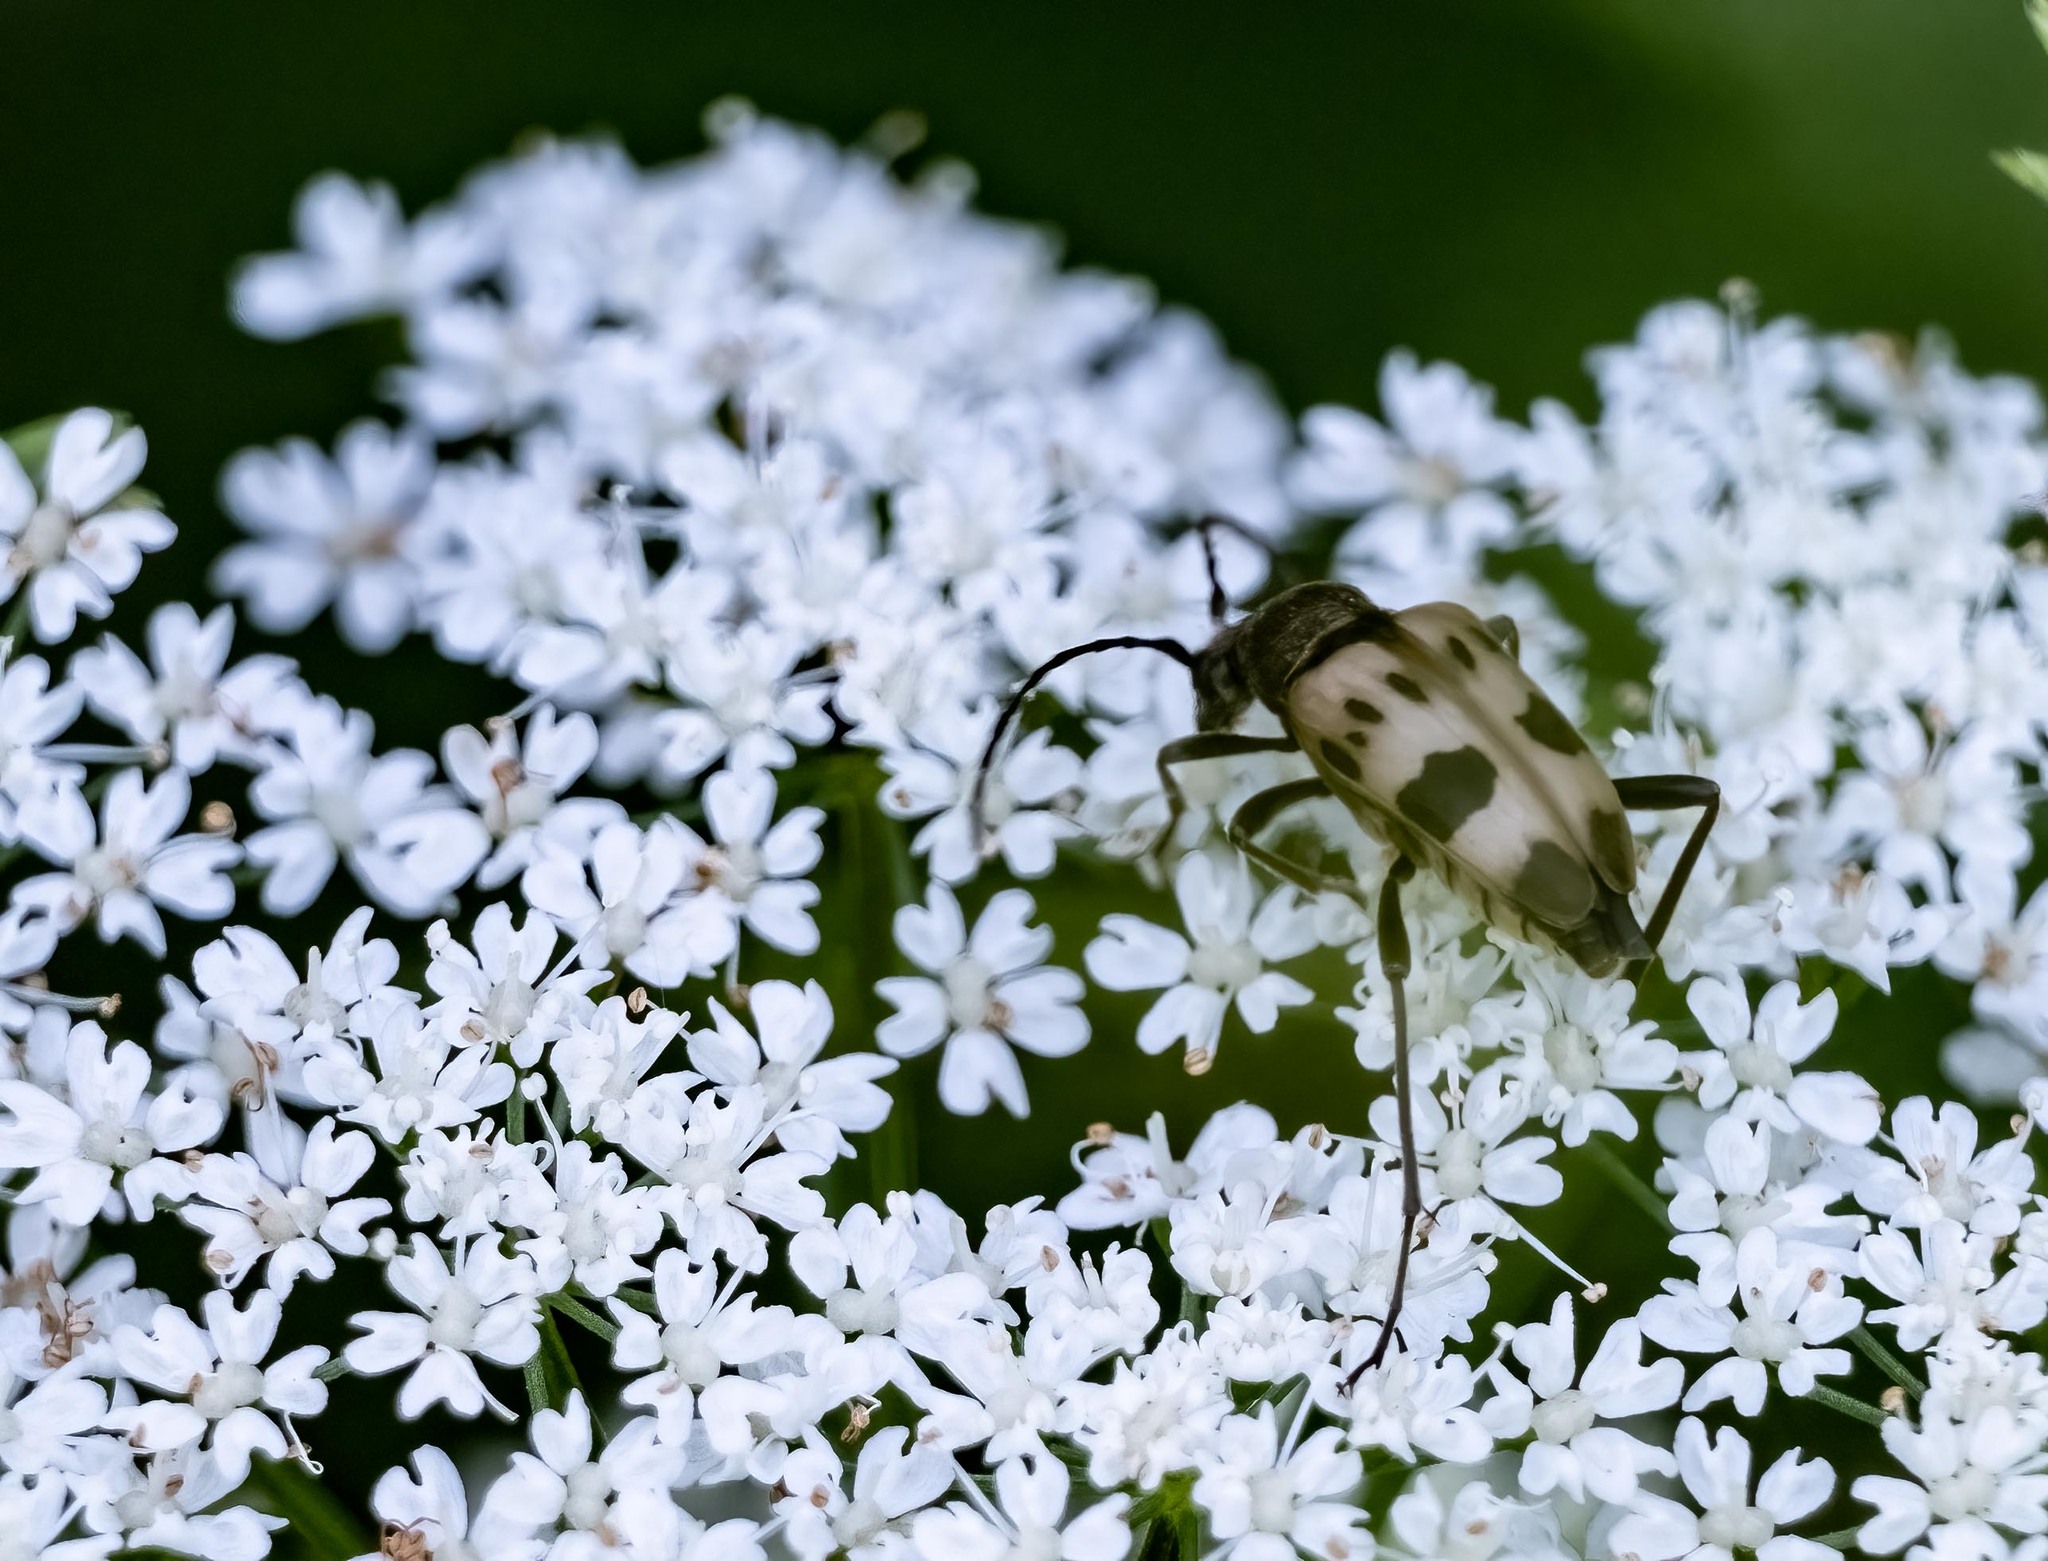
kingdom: Animalia
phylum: Arthropoda
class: Insecta
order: Coleoptera
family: Cerambycidae
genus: Pachytodes
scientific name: Pachytodes cerambyciformis
